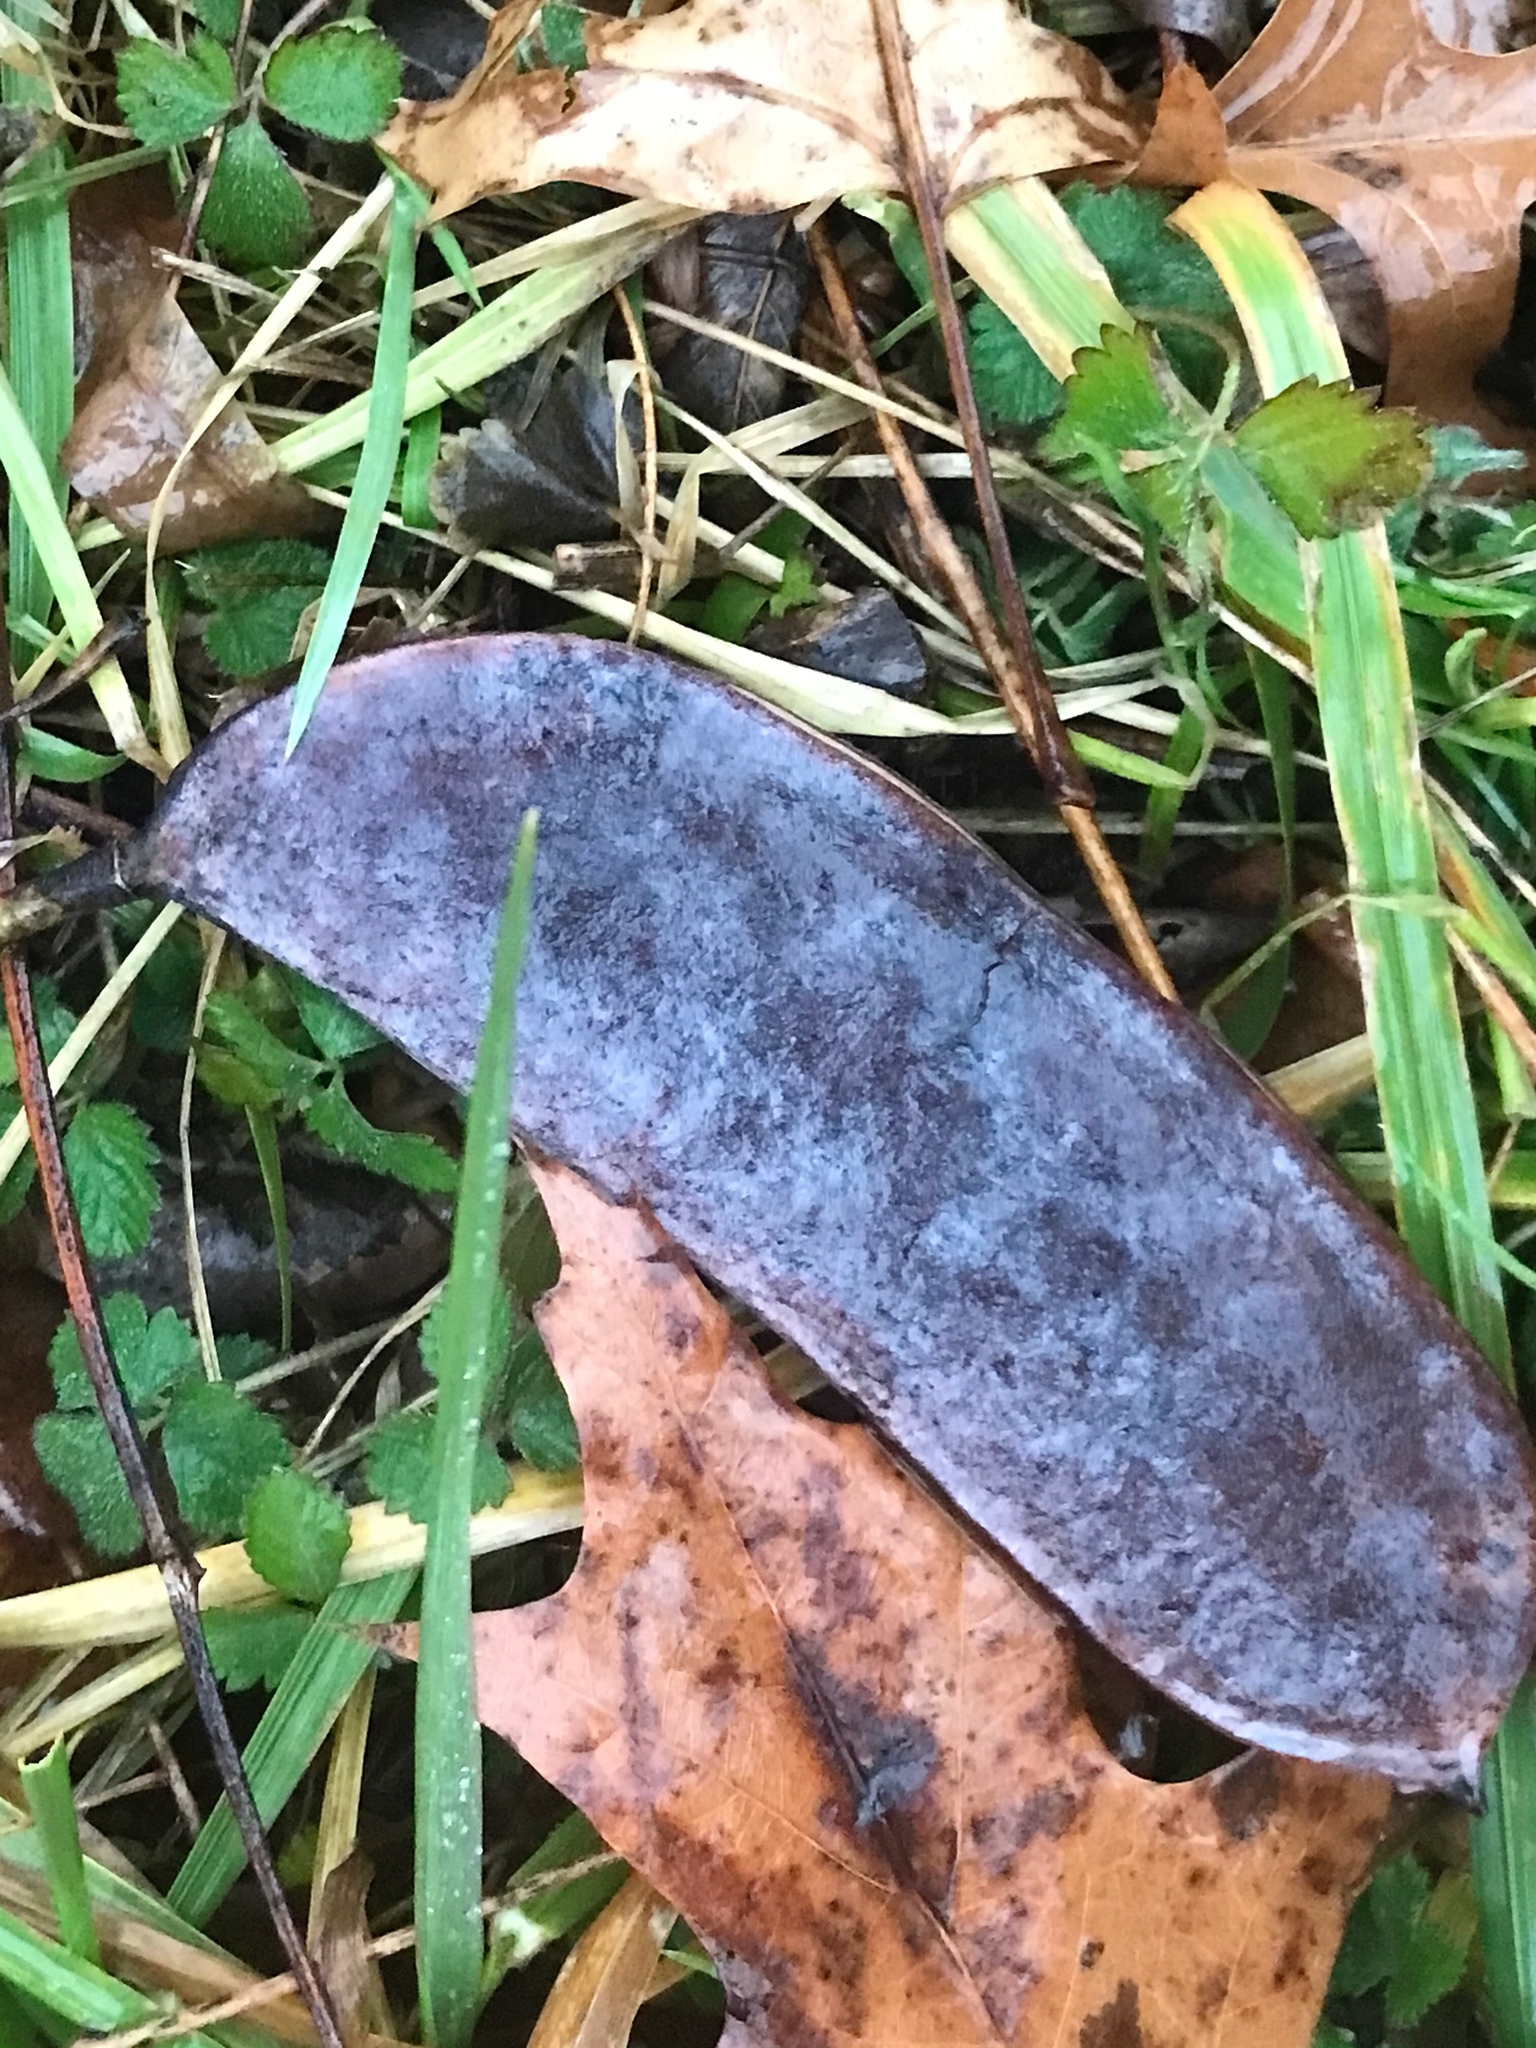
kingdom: Plantae
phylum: Tracheophyta
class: Magnoliopsida
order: Fabales
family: Fabaceae
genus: Gymnocladus
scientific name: Gymnocladus dioicus
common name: Kentucky coffee-tree
